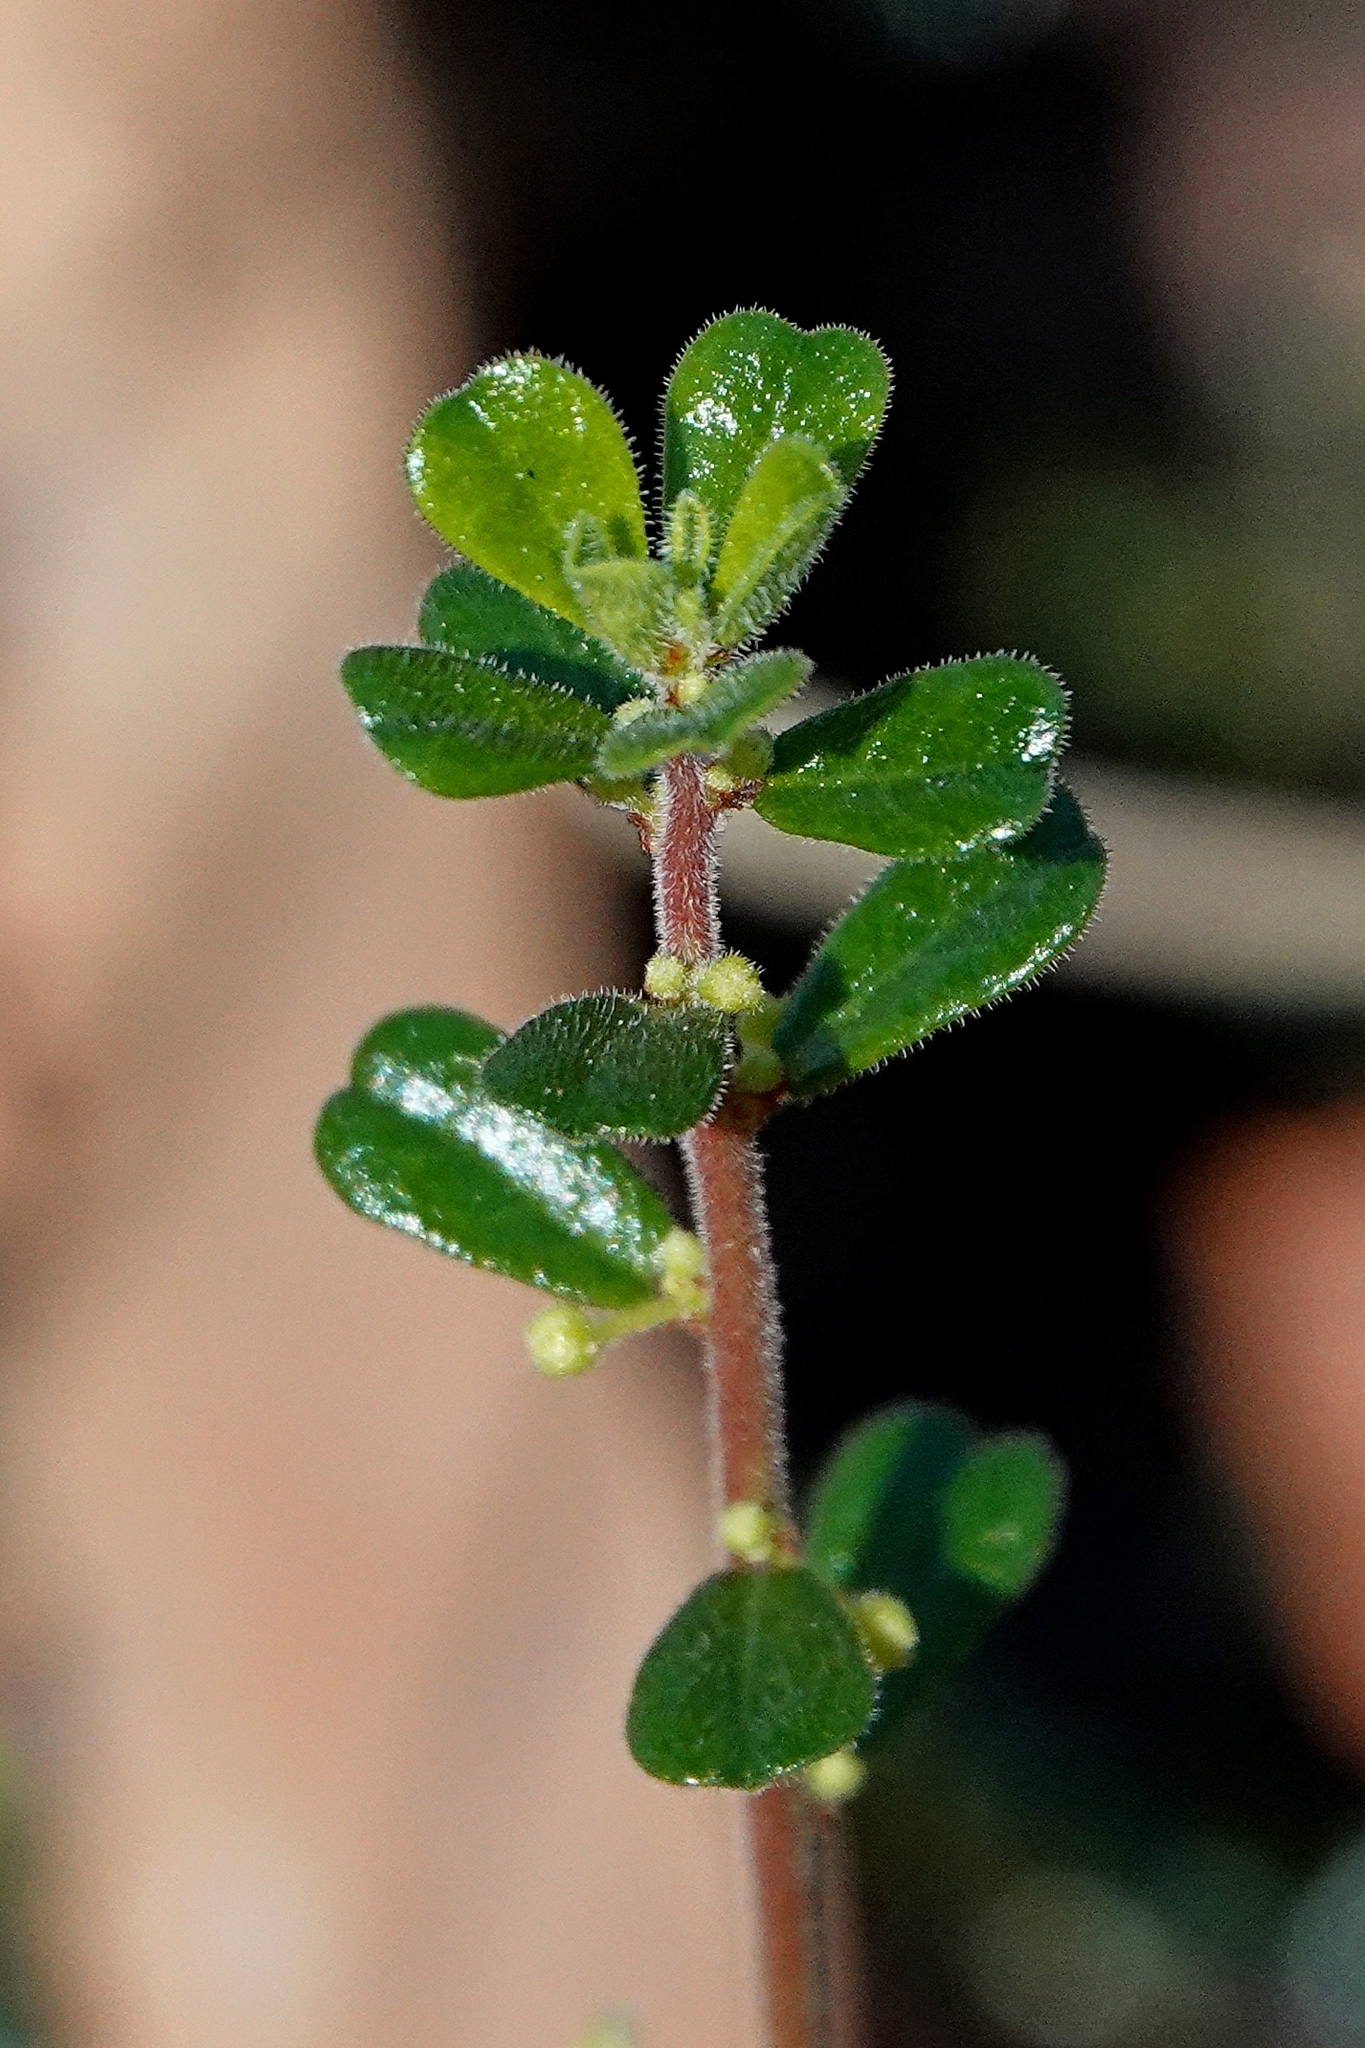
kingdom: Plantae
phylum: Tracheophyta
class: Magnoliopsida
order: Malpighiales
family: Phyllanthaceae
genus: Phyllanthus
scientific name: Phyllanthus hirtellus
